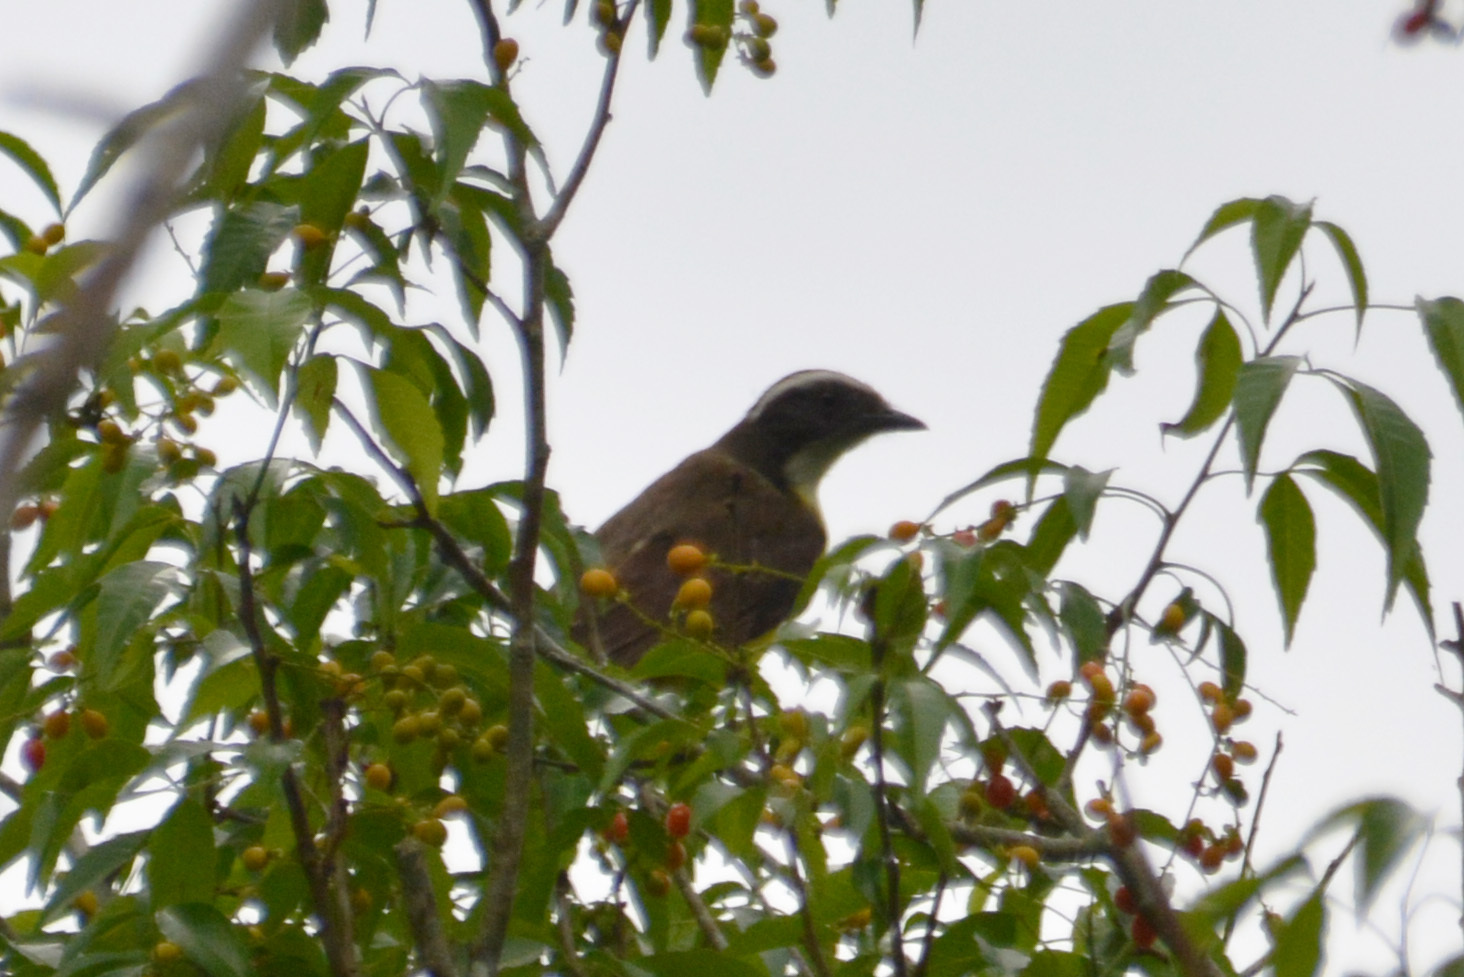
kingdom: Animalia
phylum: Chordata
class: Aves
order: Passeriformes
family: Tyrannidae
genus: Myiozetetes
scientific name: Myiozetetes similis
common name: Social flycatcher
